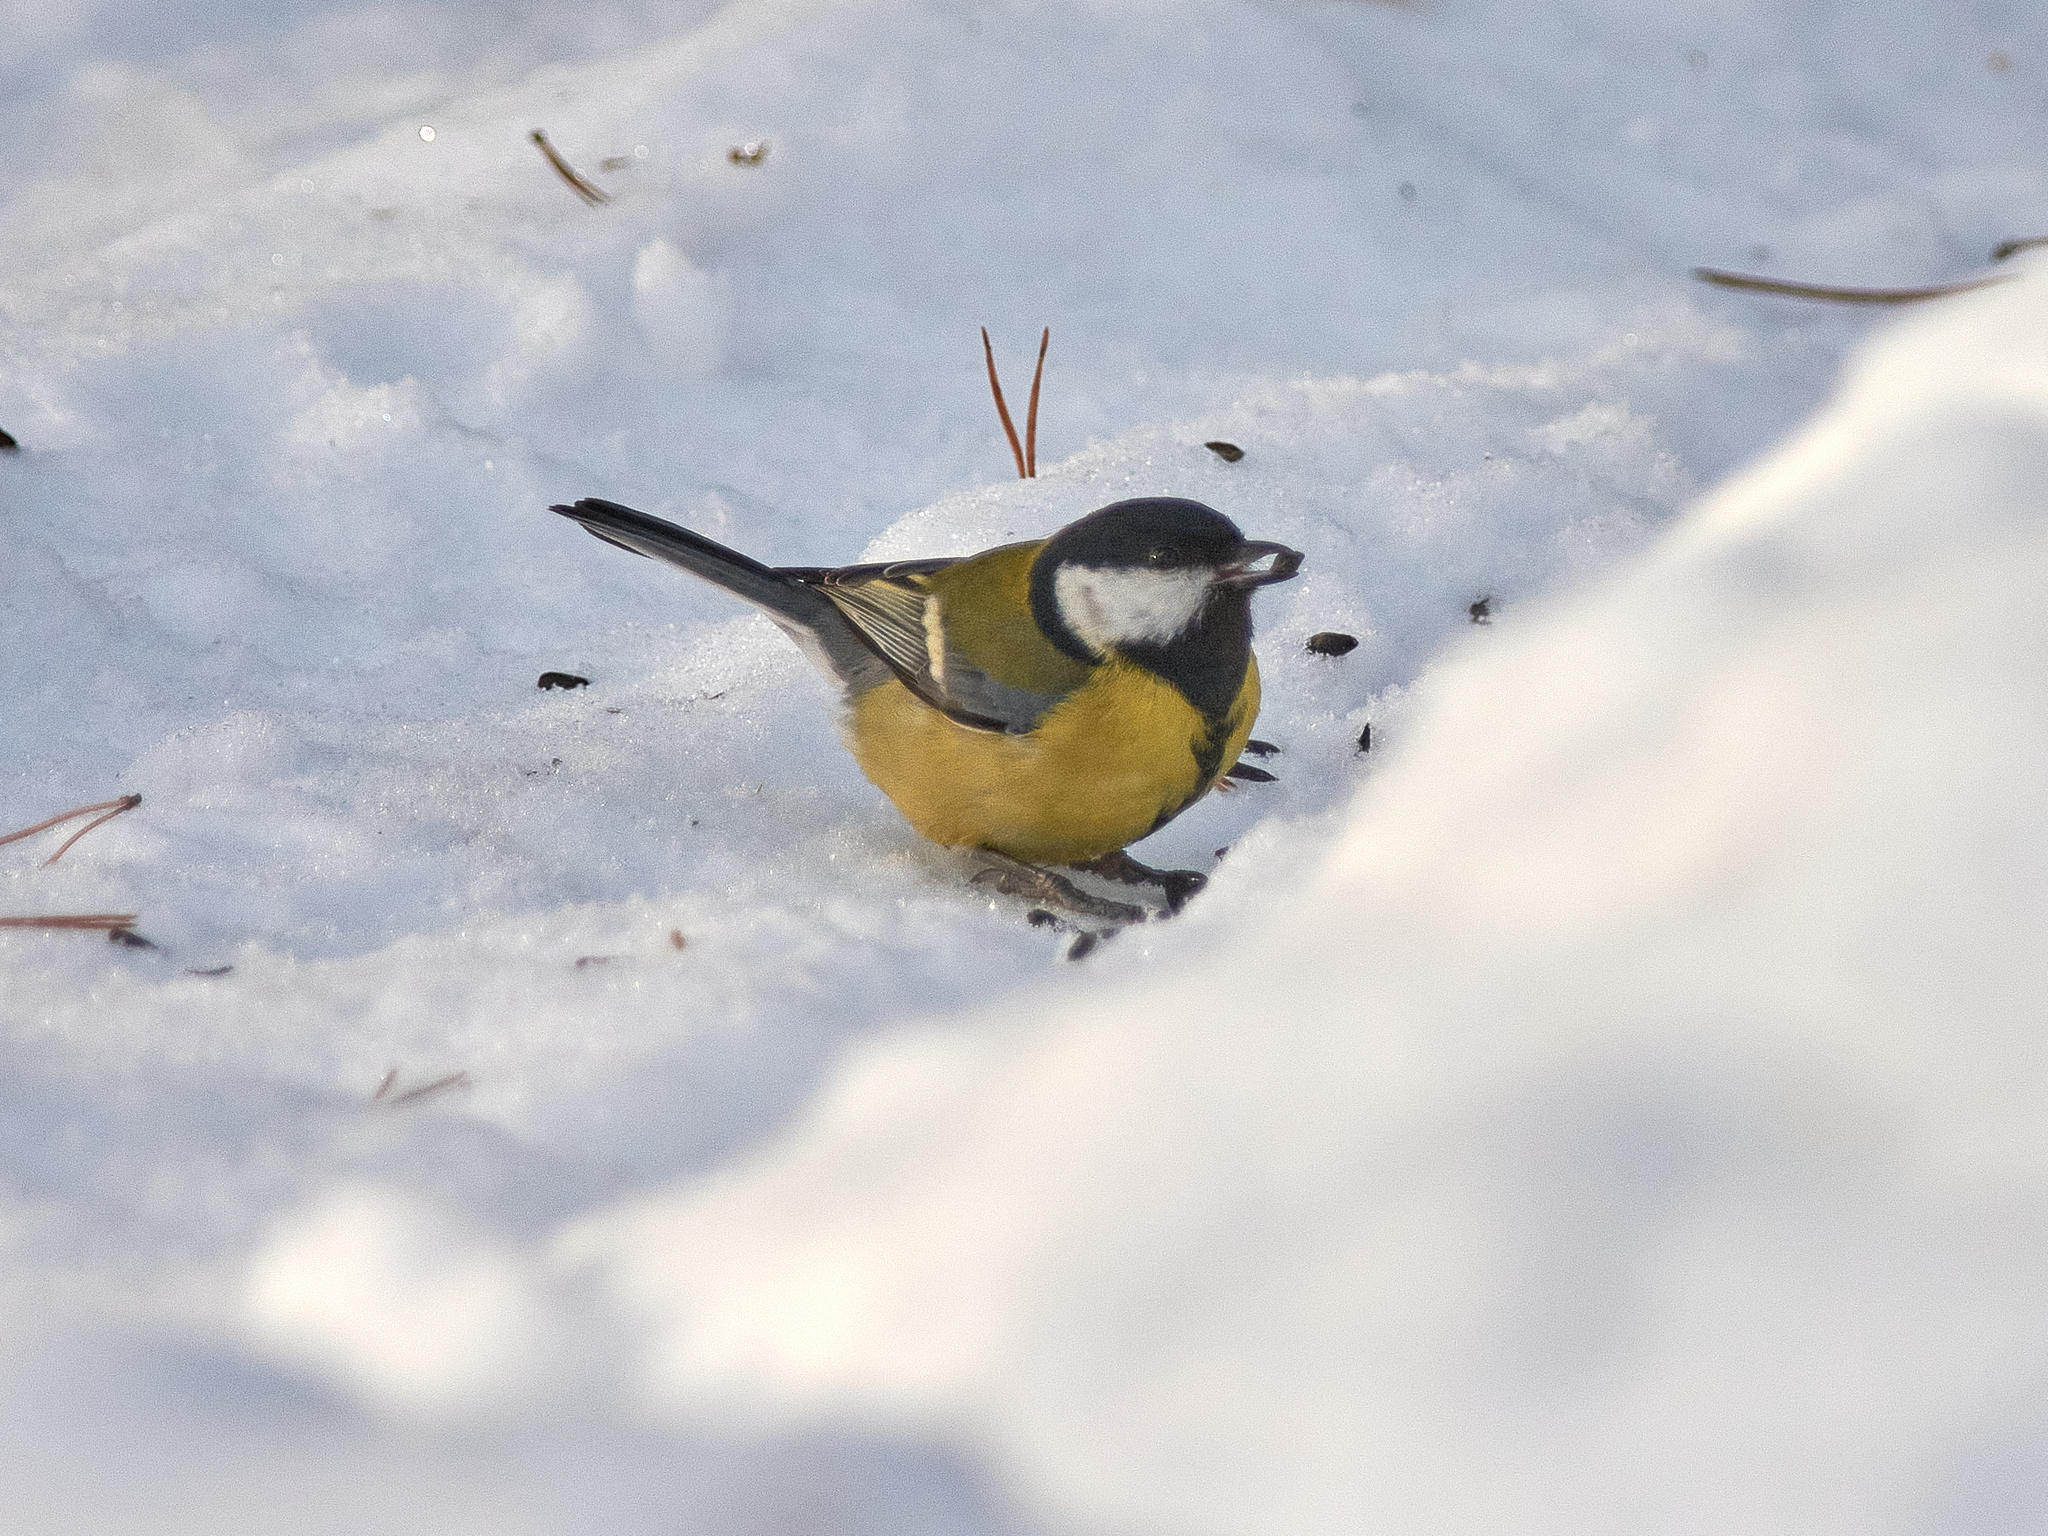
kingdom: Animalia
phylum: Chordata
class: Aves
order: Passeriformes
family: Paridae
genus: Parus
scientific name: Parus major
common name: Great tit
